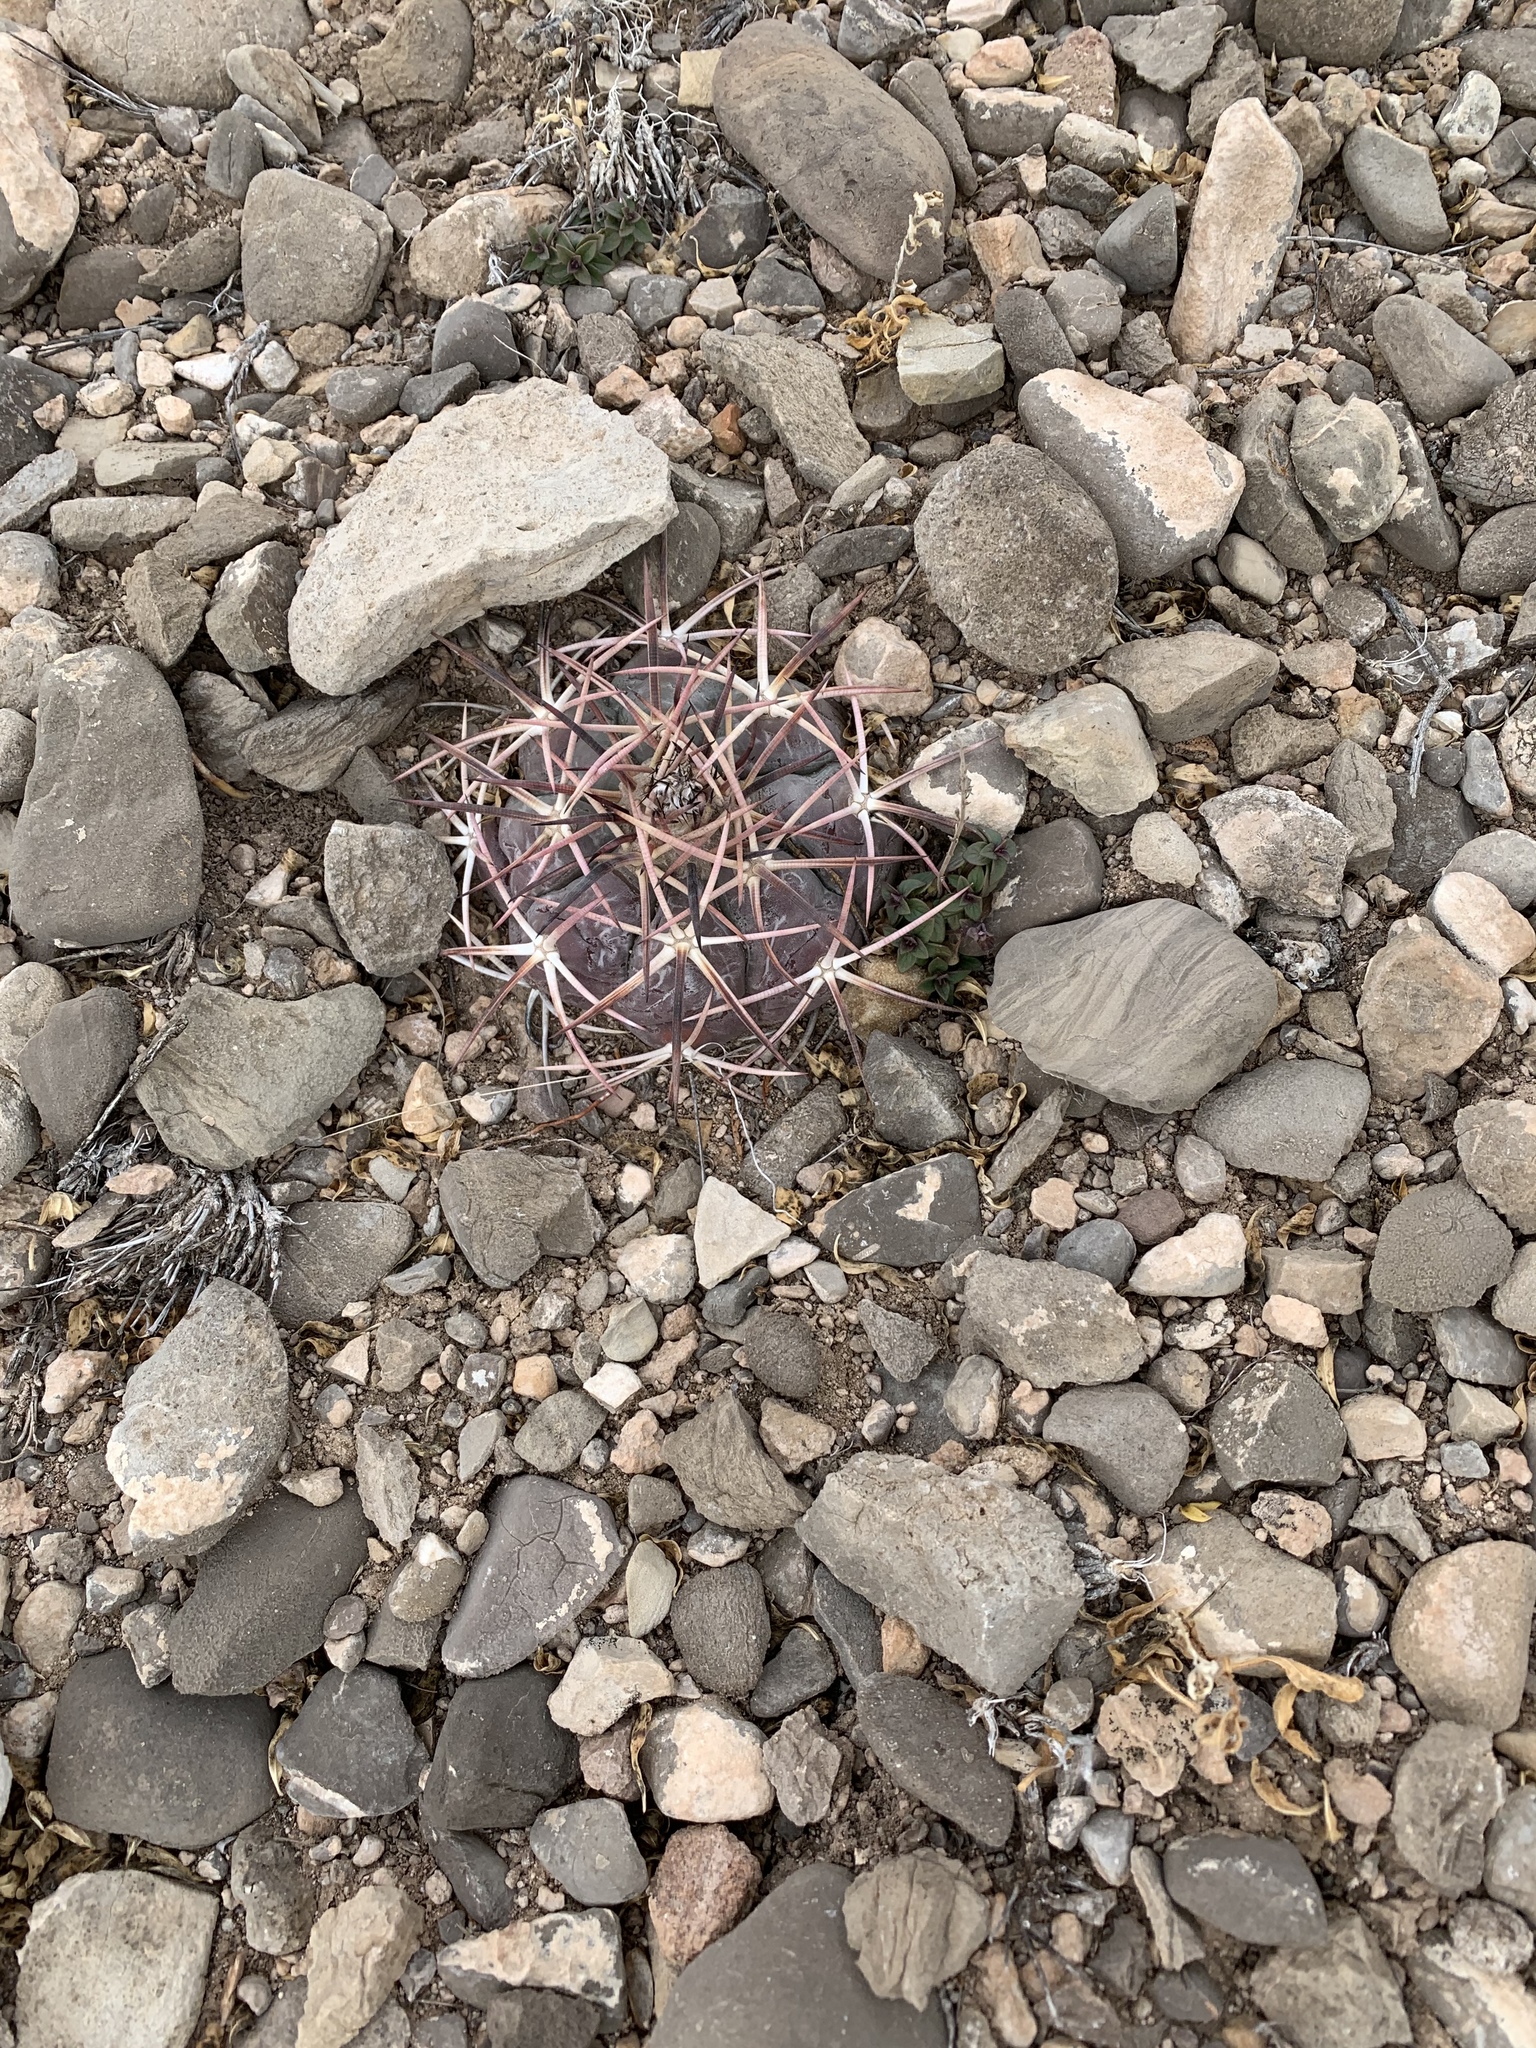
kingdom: Plantae
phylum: Tracheophyta
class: Magnoliopsida
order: Caryophyllales
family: Cactaceae
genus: Echinocactus
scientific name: Echinocactus horizonthalonius
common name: Devilshead
